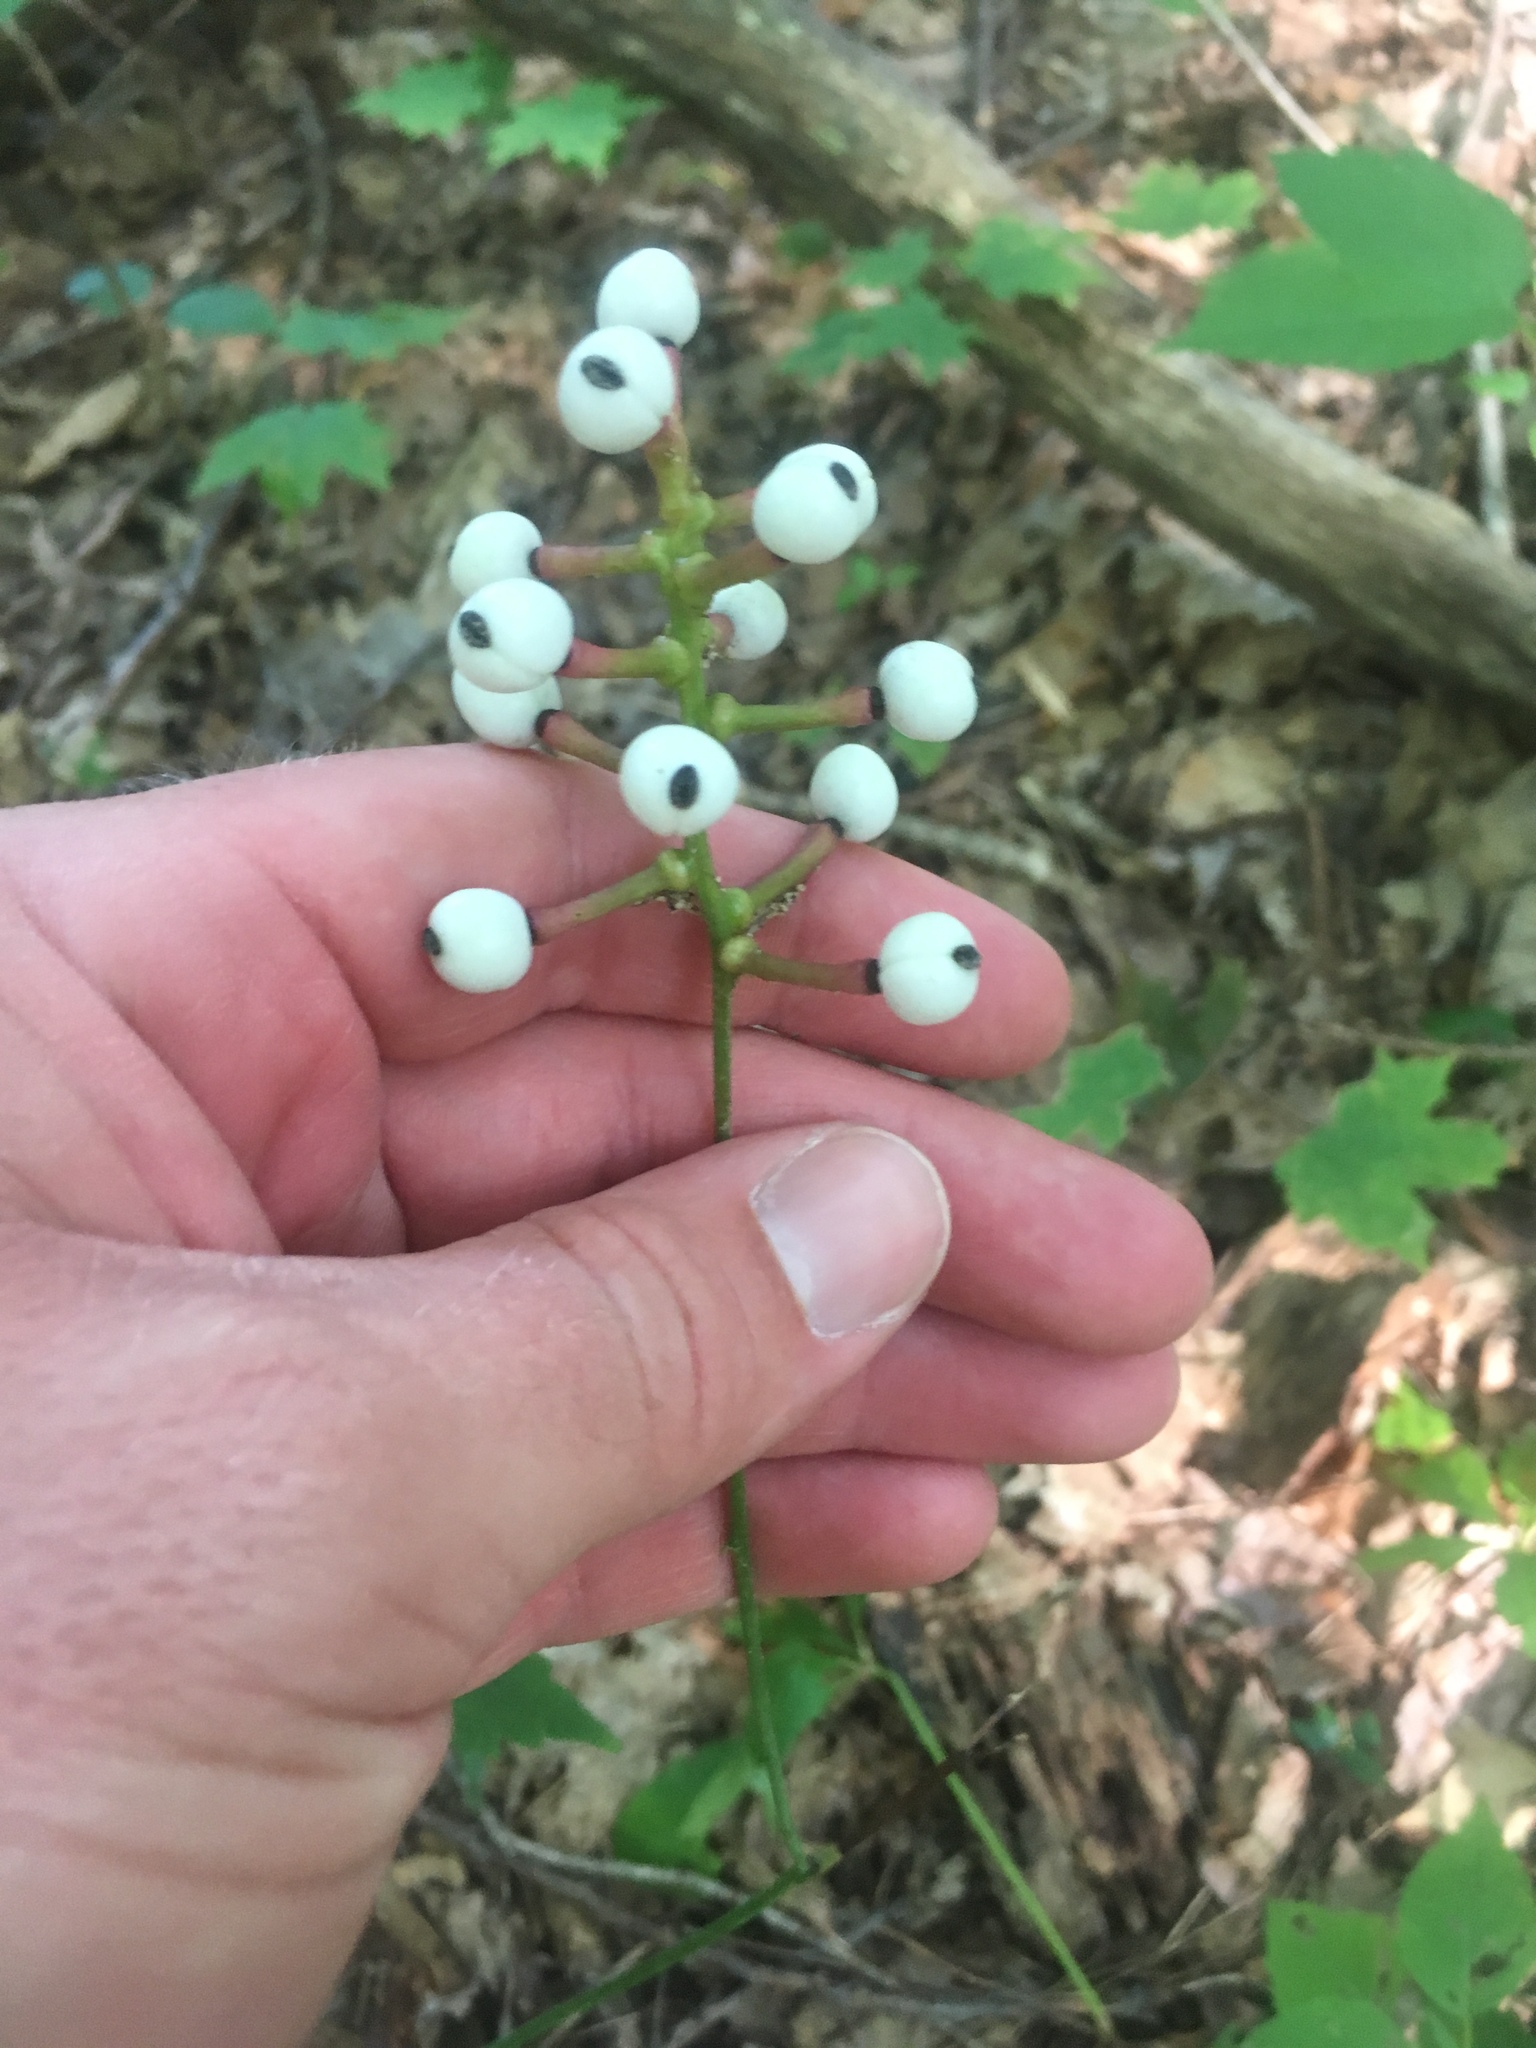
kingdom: Plantae
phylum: Tracheophyta
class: Magnoliopsida
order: Ranunculales
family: Ranunculaceae
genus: Actaea
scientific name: Actaea pachypoda
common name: Doll's-eyes
